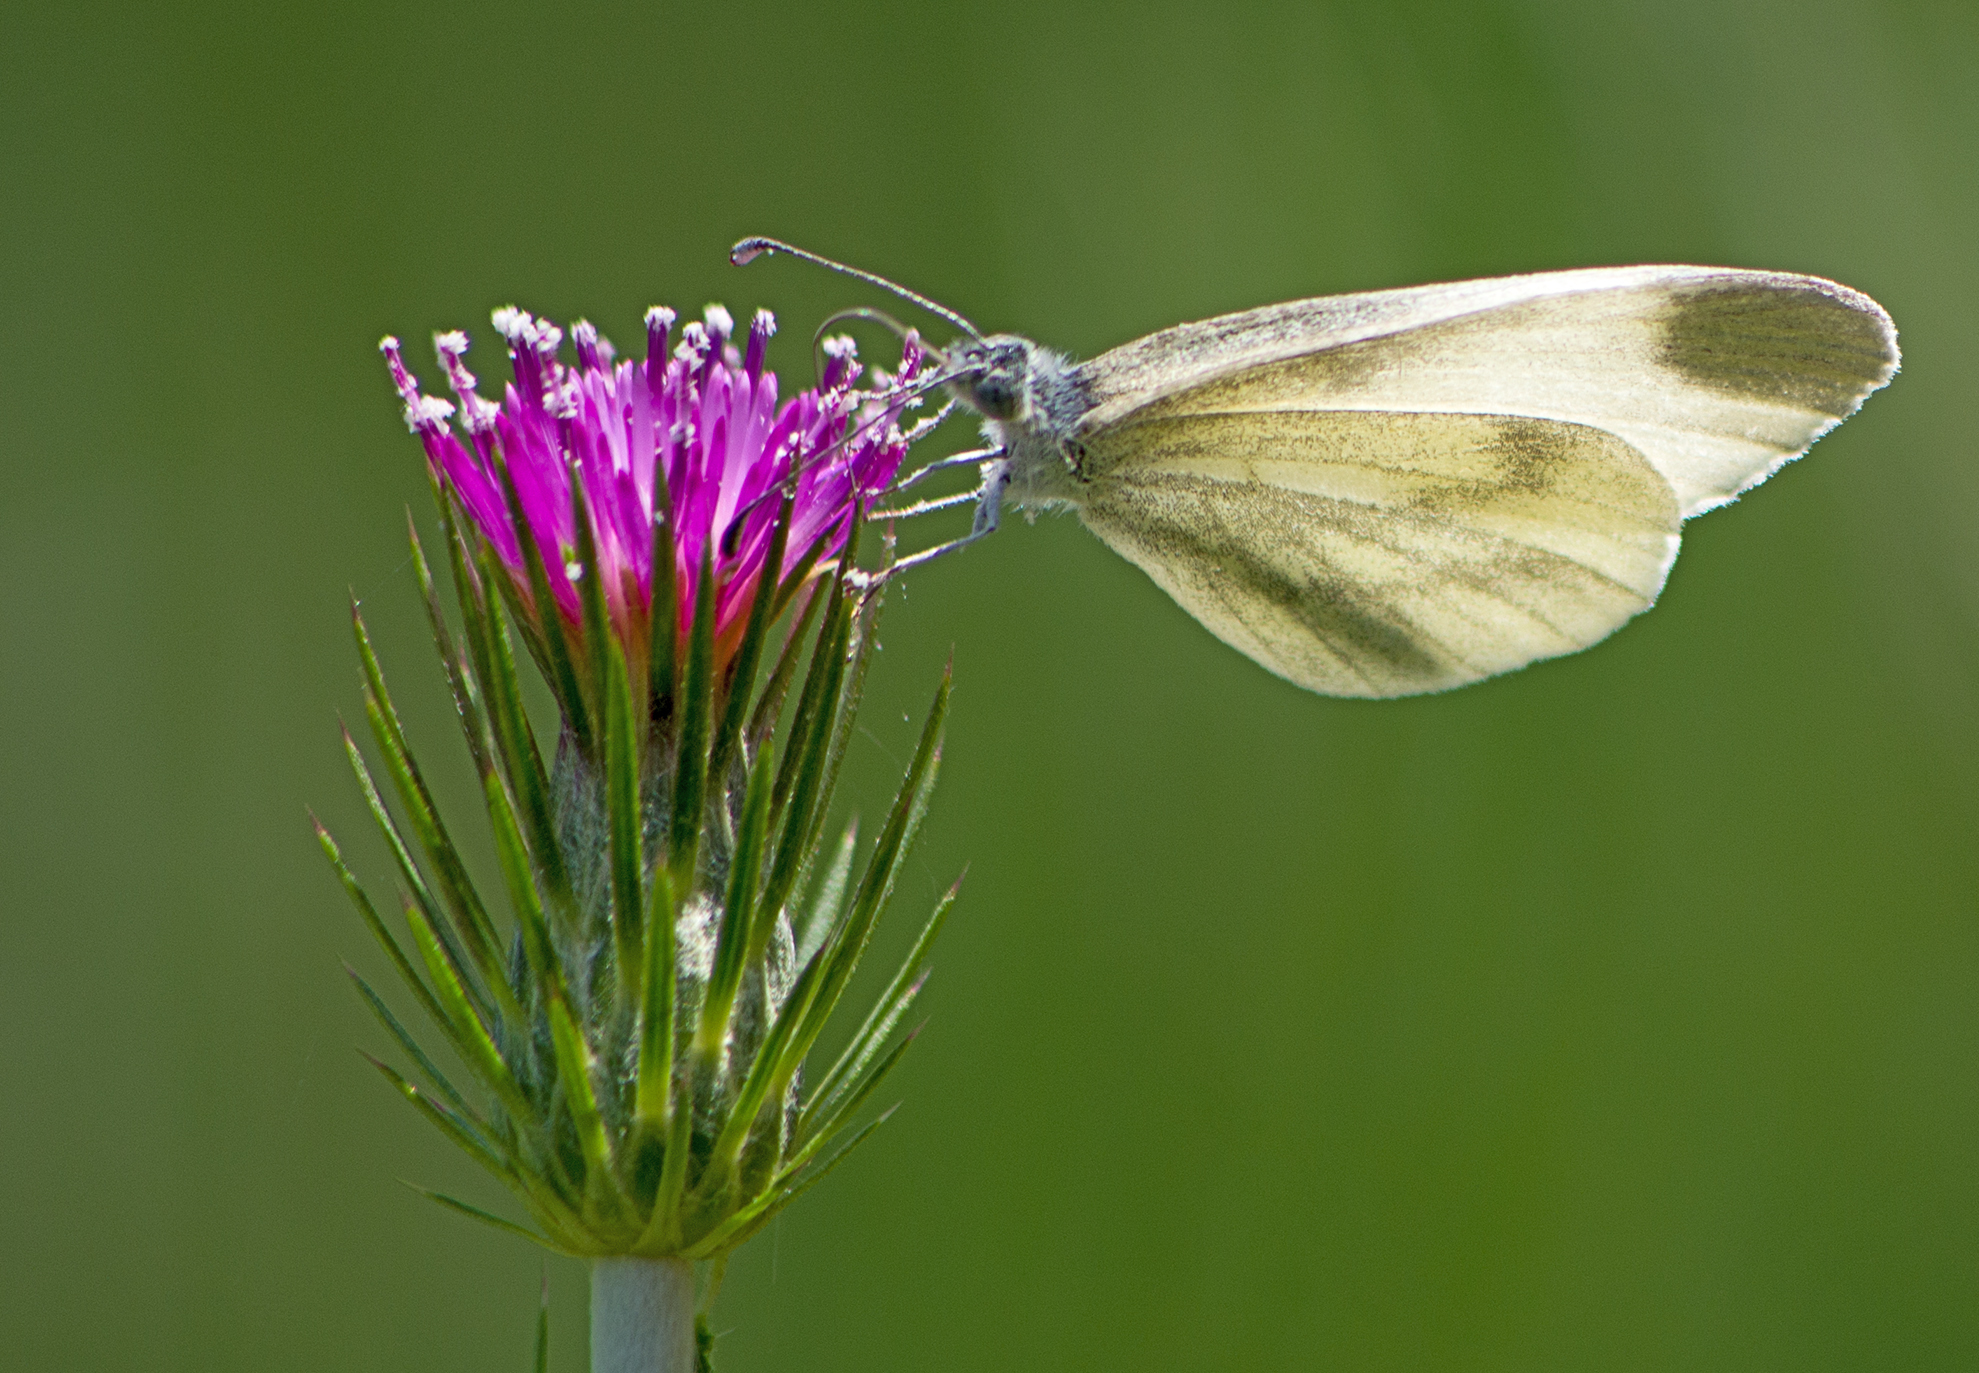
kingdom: Animalia
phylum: Arthropoda
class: Insecta
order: Lepidoptera
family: Pieridae
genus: Leptidea
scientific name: Leptidea
